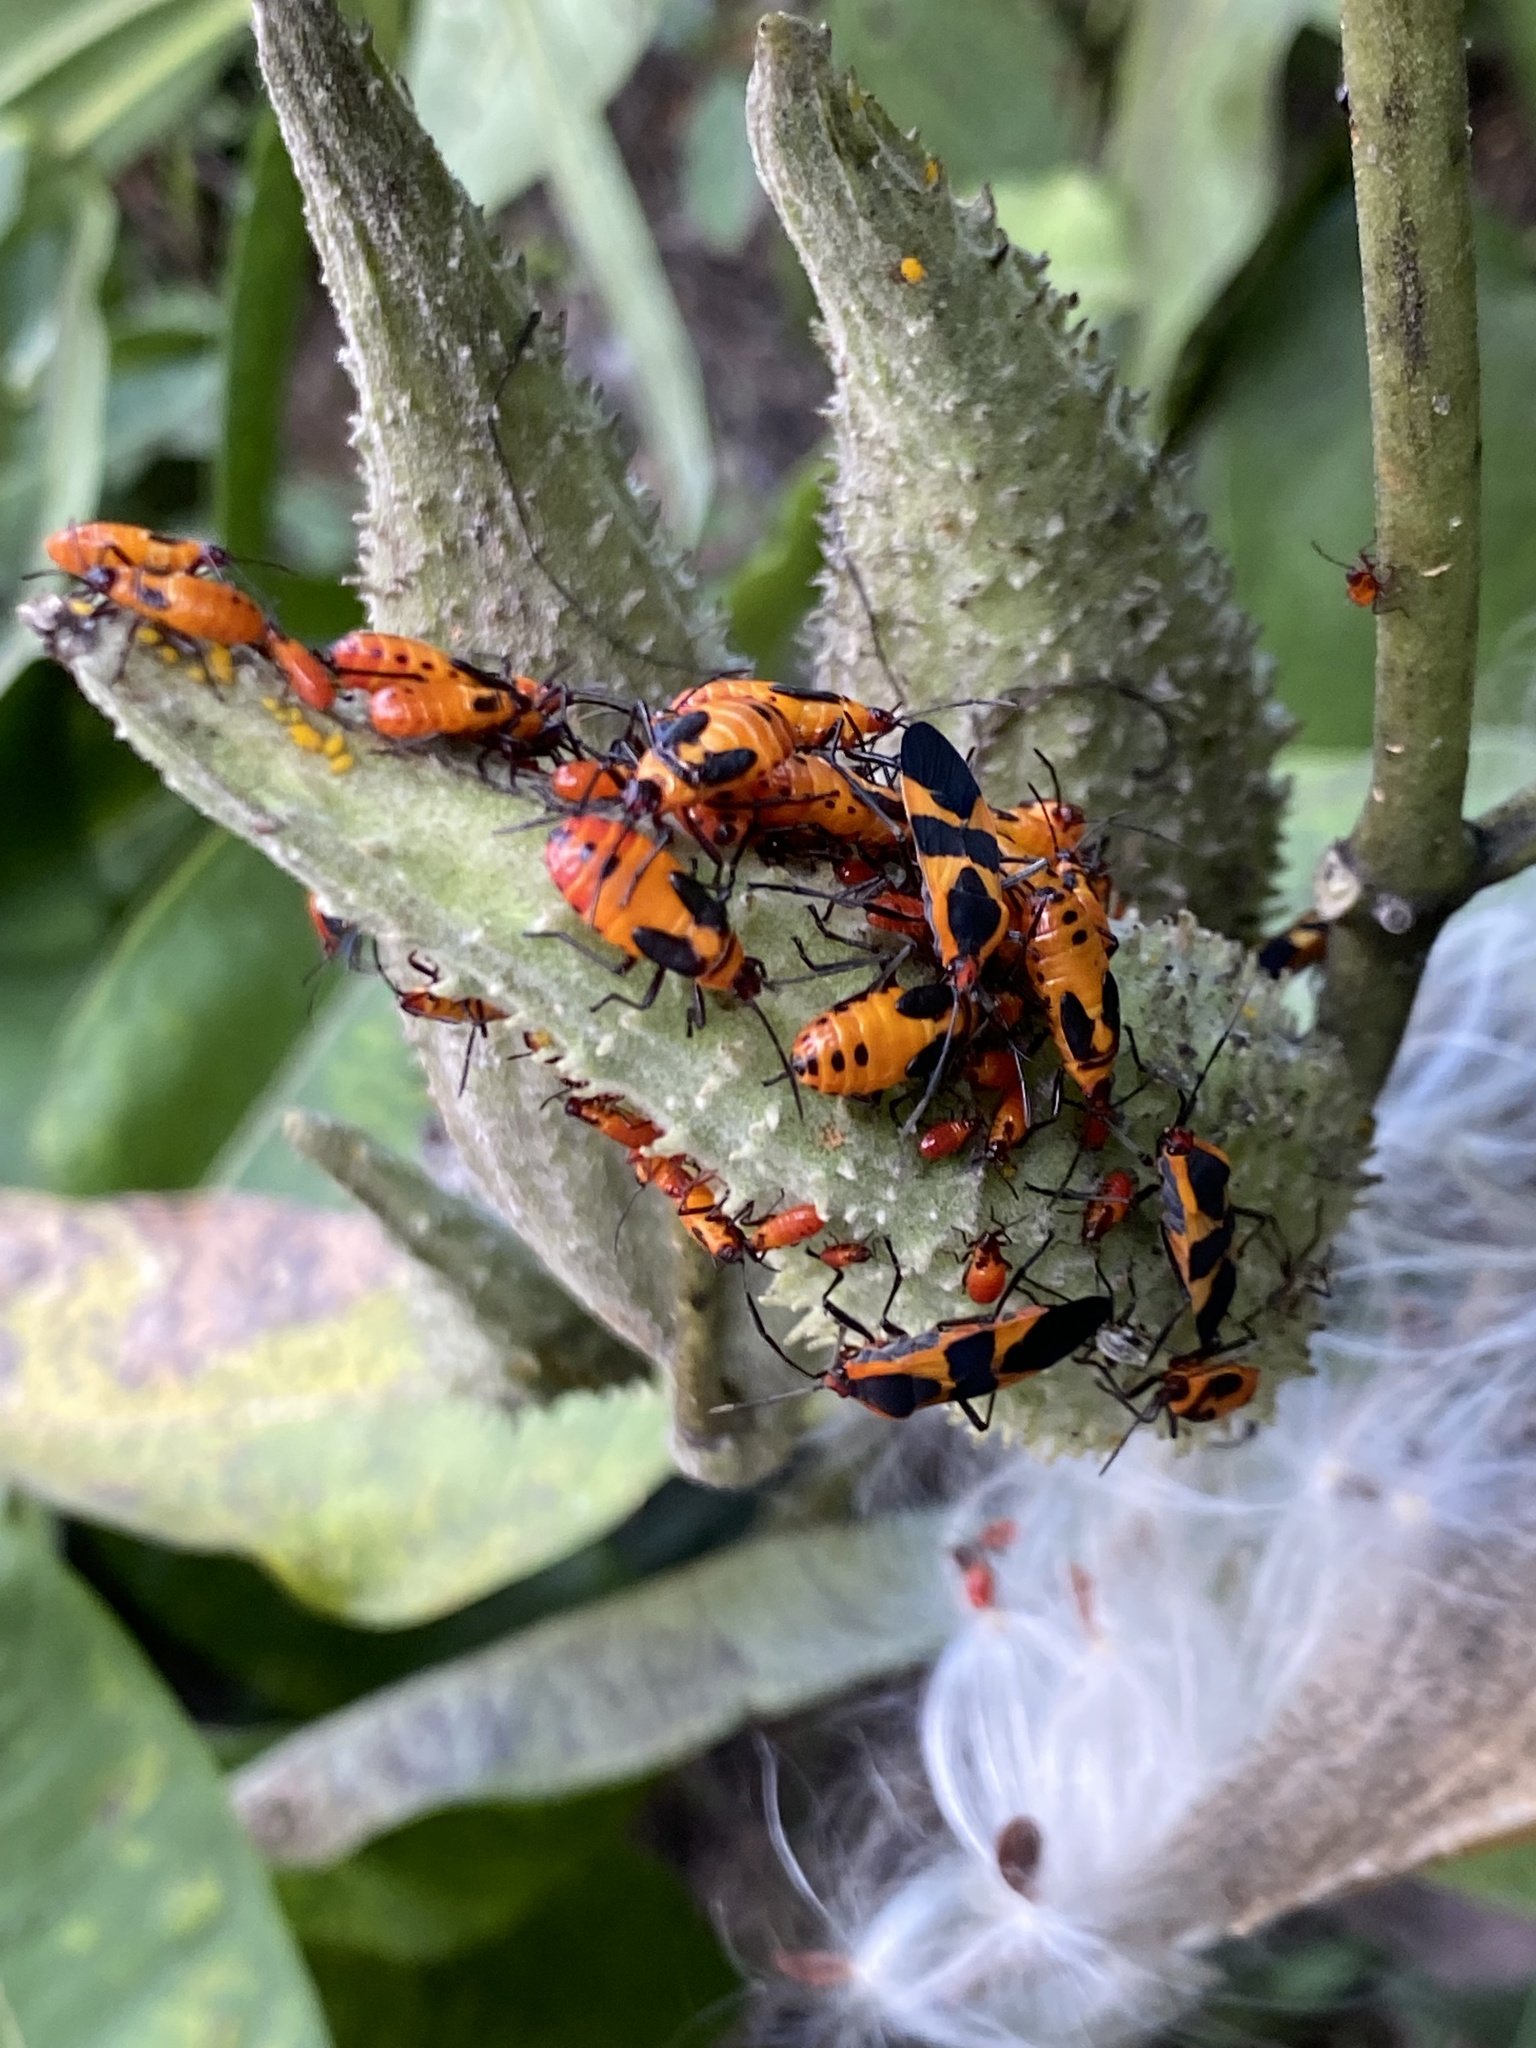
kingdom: Animalia
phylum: Arthropoda
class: Insecta
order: Hemiptera
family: Lygaeidae
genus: Oncopeltus
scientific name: Oncopeltus fasciatus
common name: Large milkweed bug
